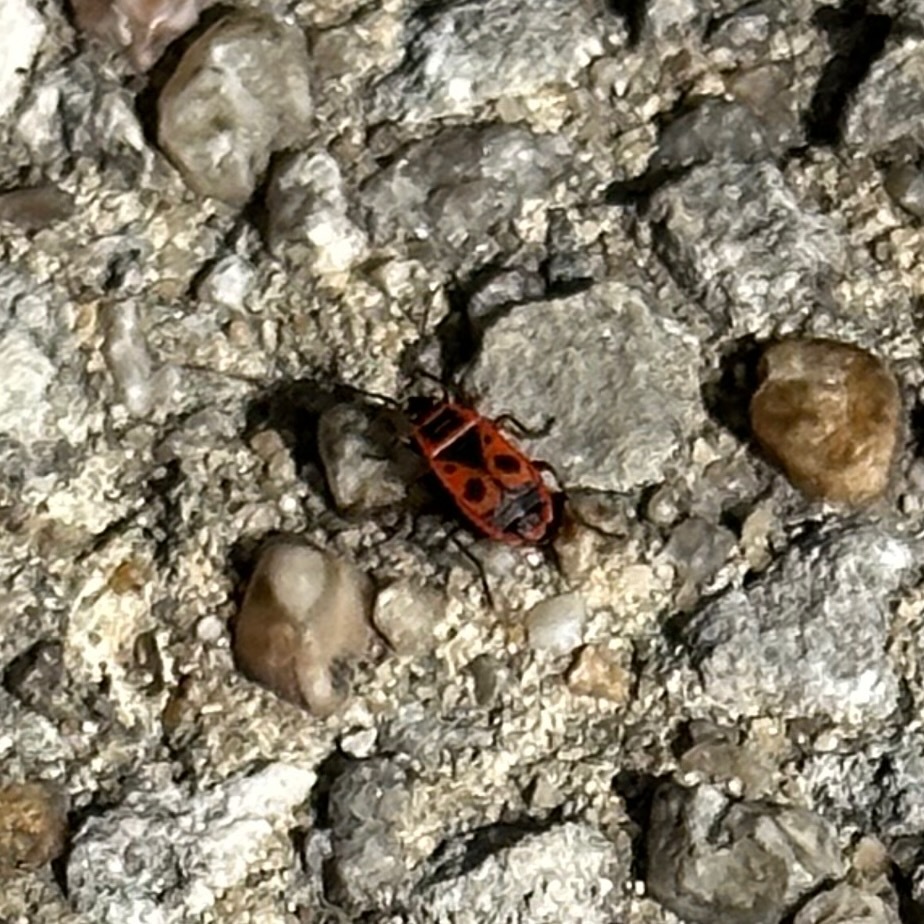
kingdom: Animalia
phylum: Arthropoda
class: Insecta
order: Hemiptera
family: Pyrrhocoridae
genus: Pyrrhocoris
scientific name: Pyrrhocoris apterus
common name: Firebug
